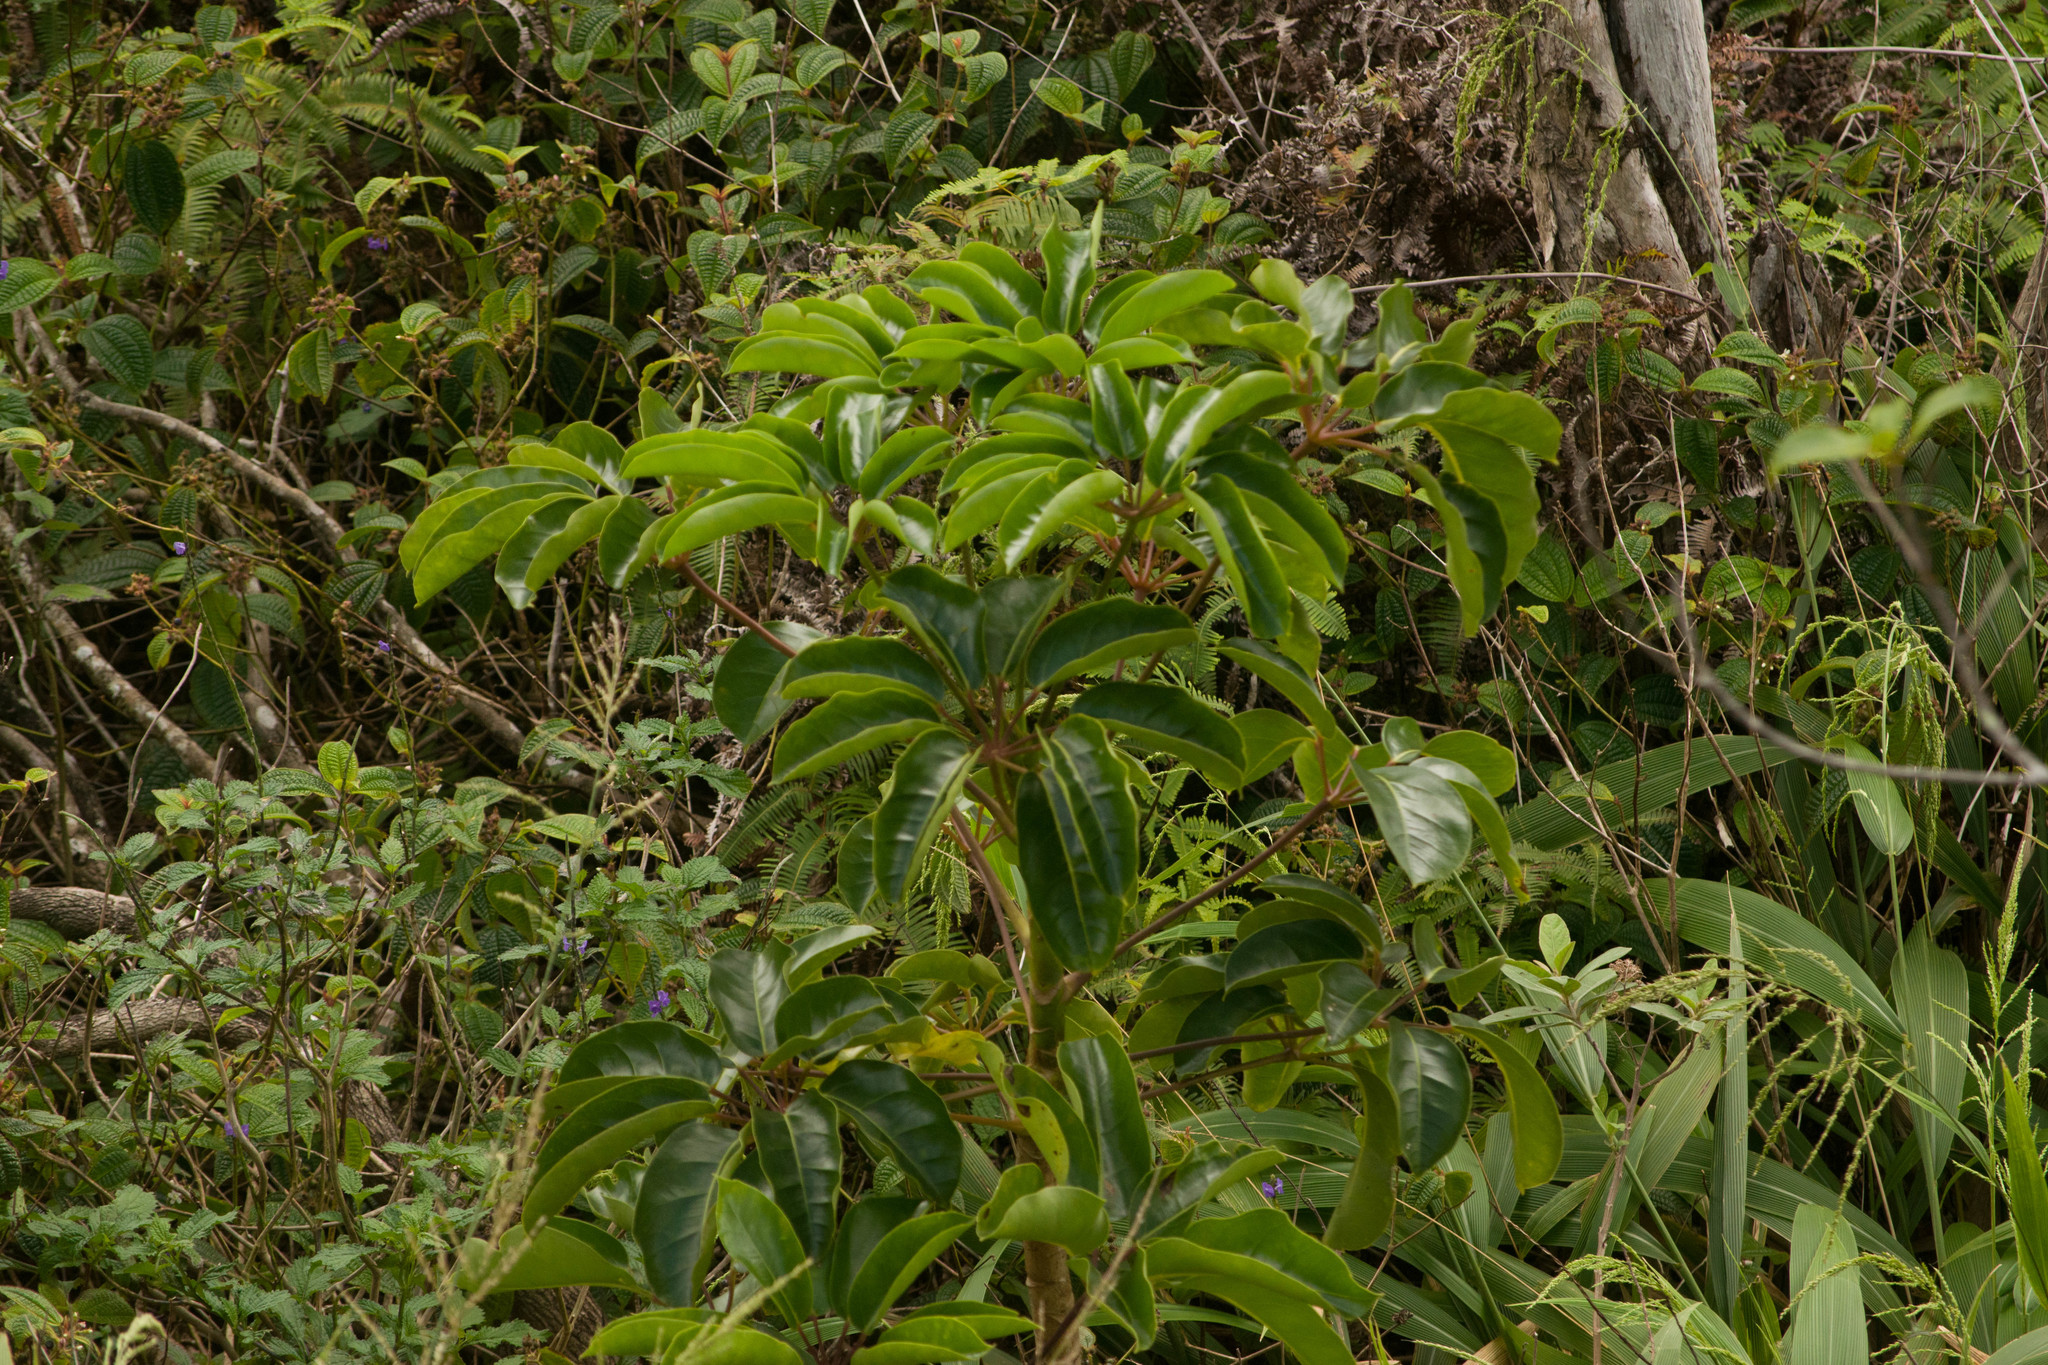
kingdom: Plantae
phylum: Tracheophyta
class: Magnoliopsida
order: Apiales
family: Araliaceae
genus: Heptapleurum
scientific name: Heptapleurum actinophyllum
